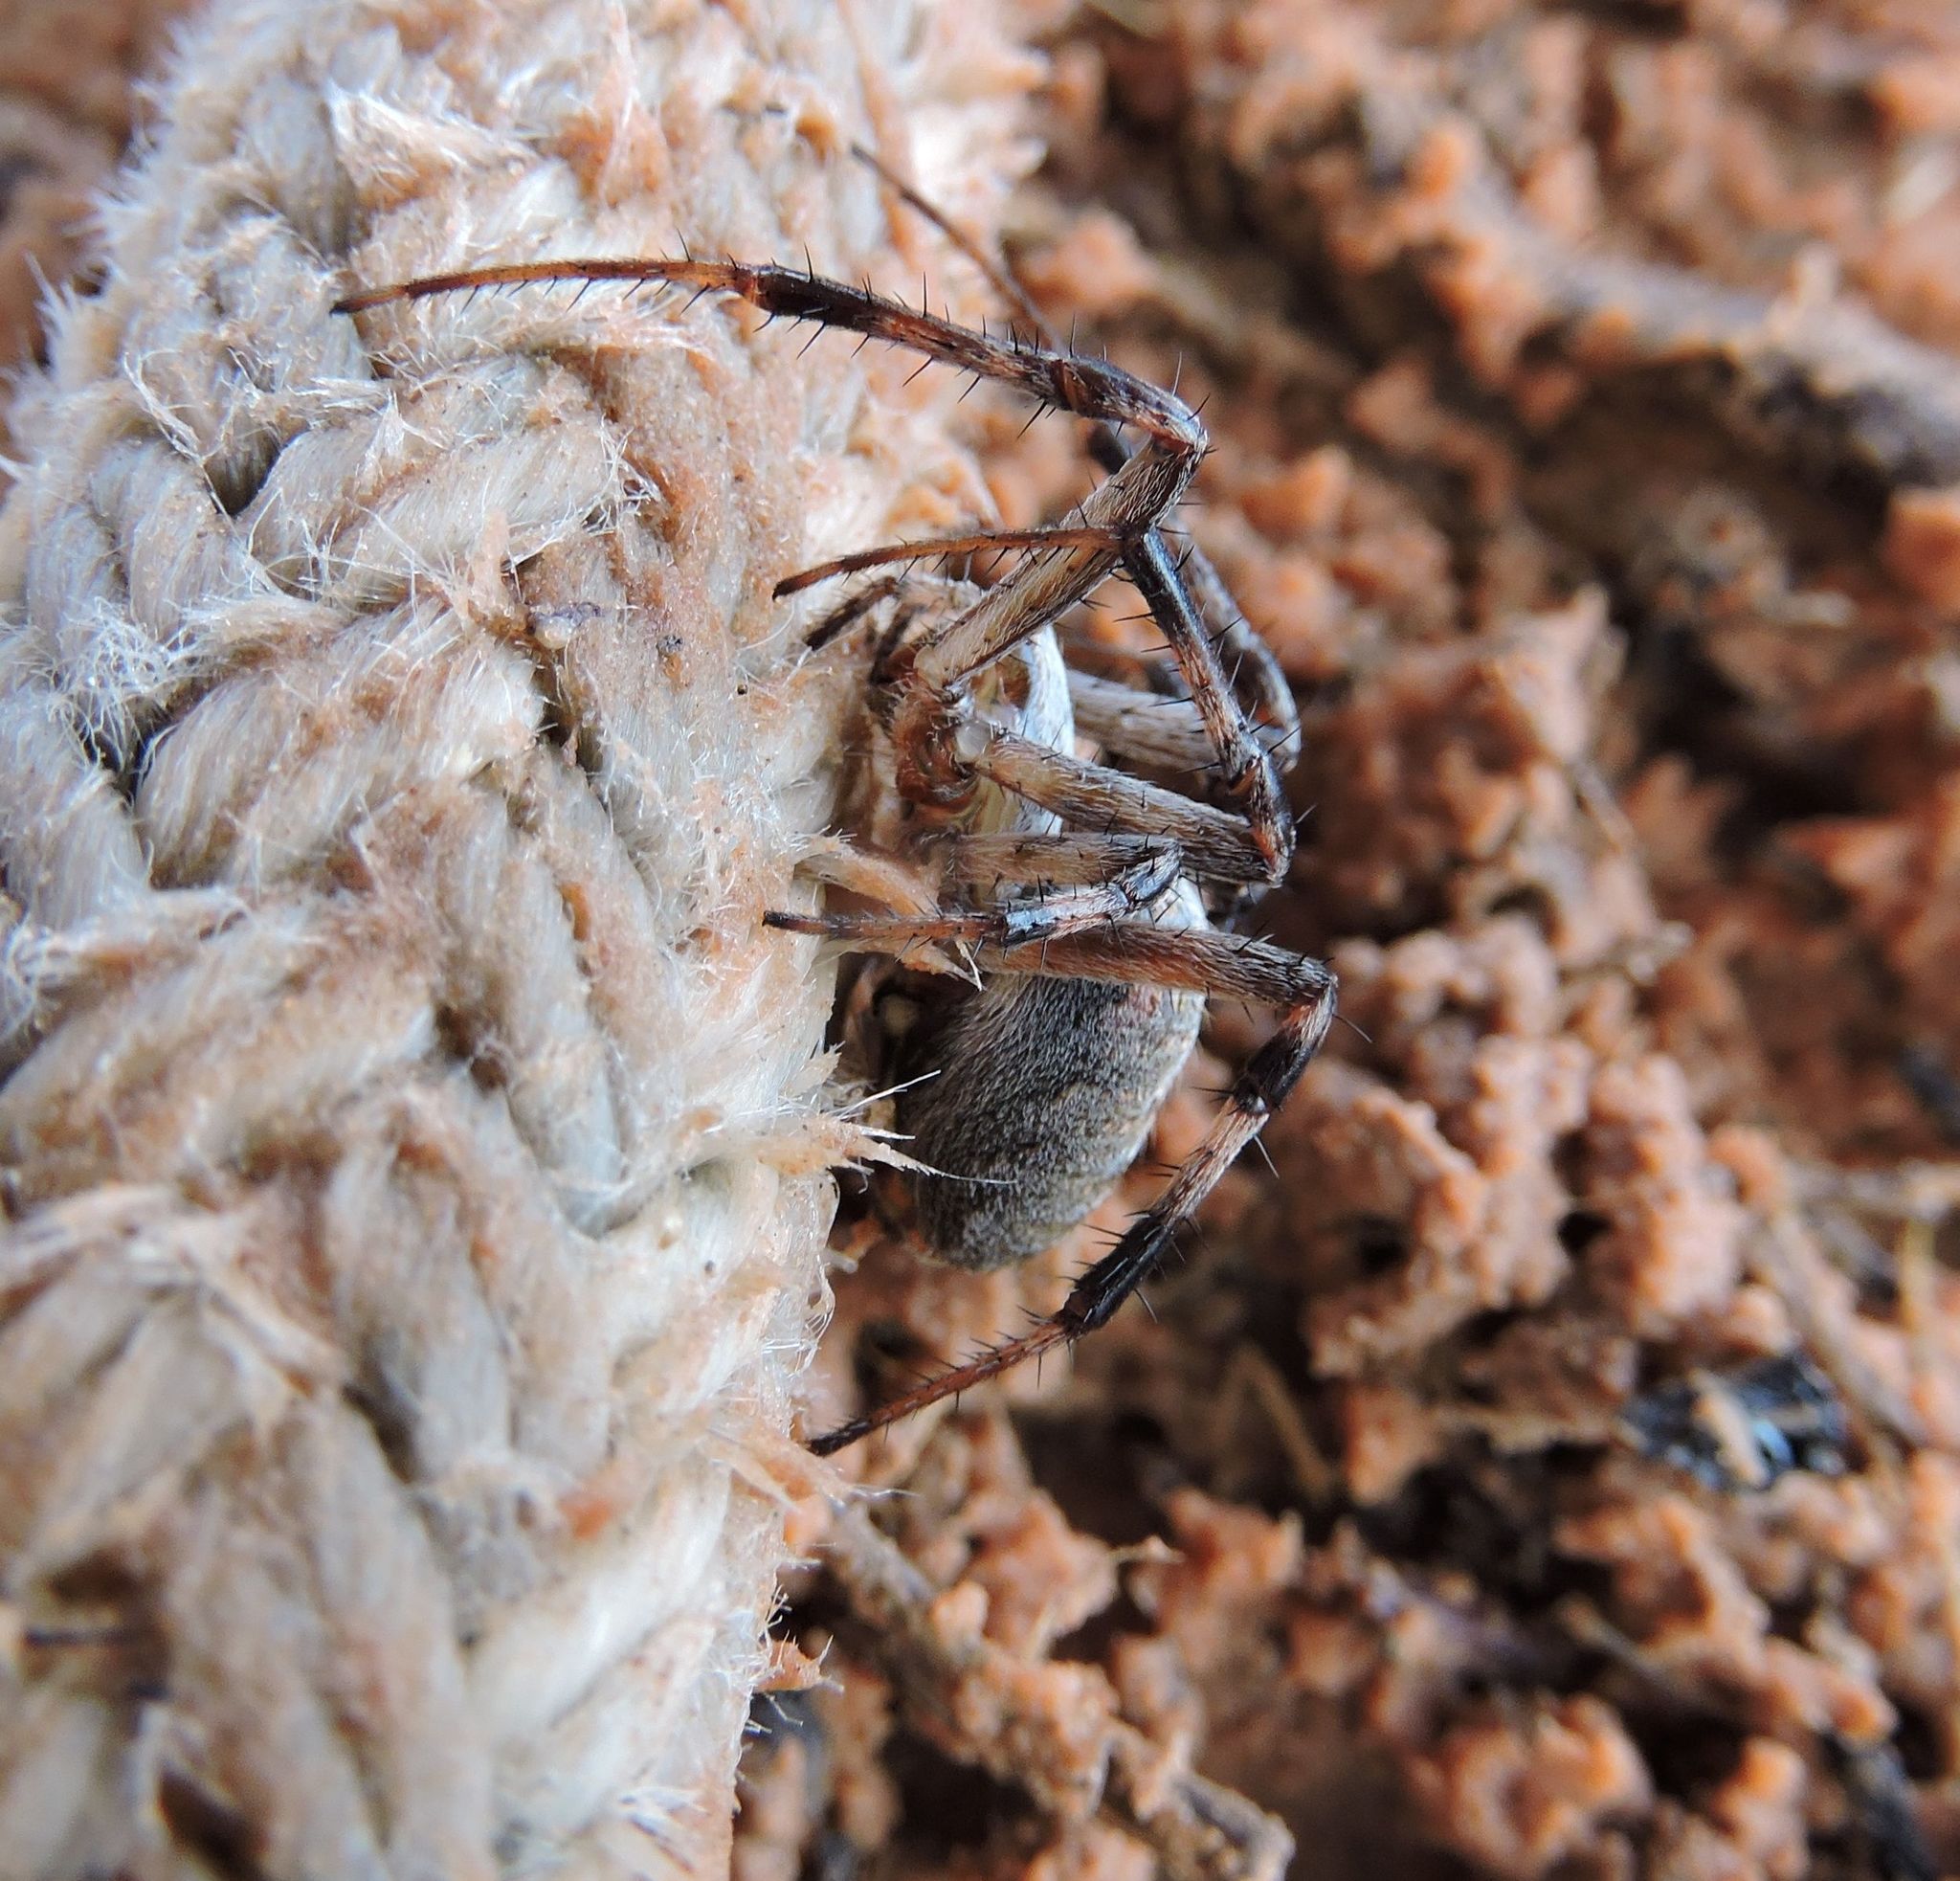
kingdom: Animalia
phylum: Arthropoda
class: Arachnida
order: Araneae
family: Araneidae
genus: Neoscona
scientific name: Neoscona oaxacensis
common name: Orb weavers
